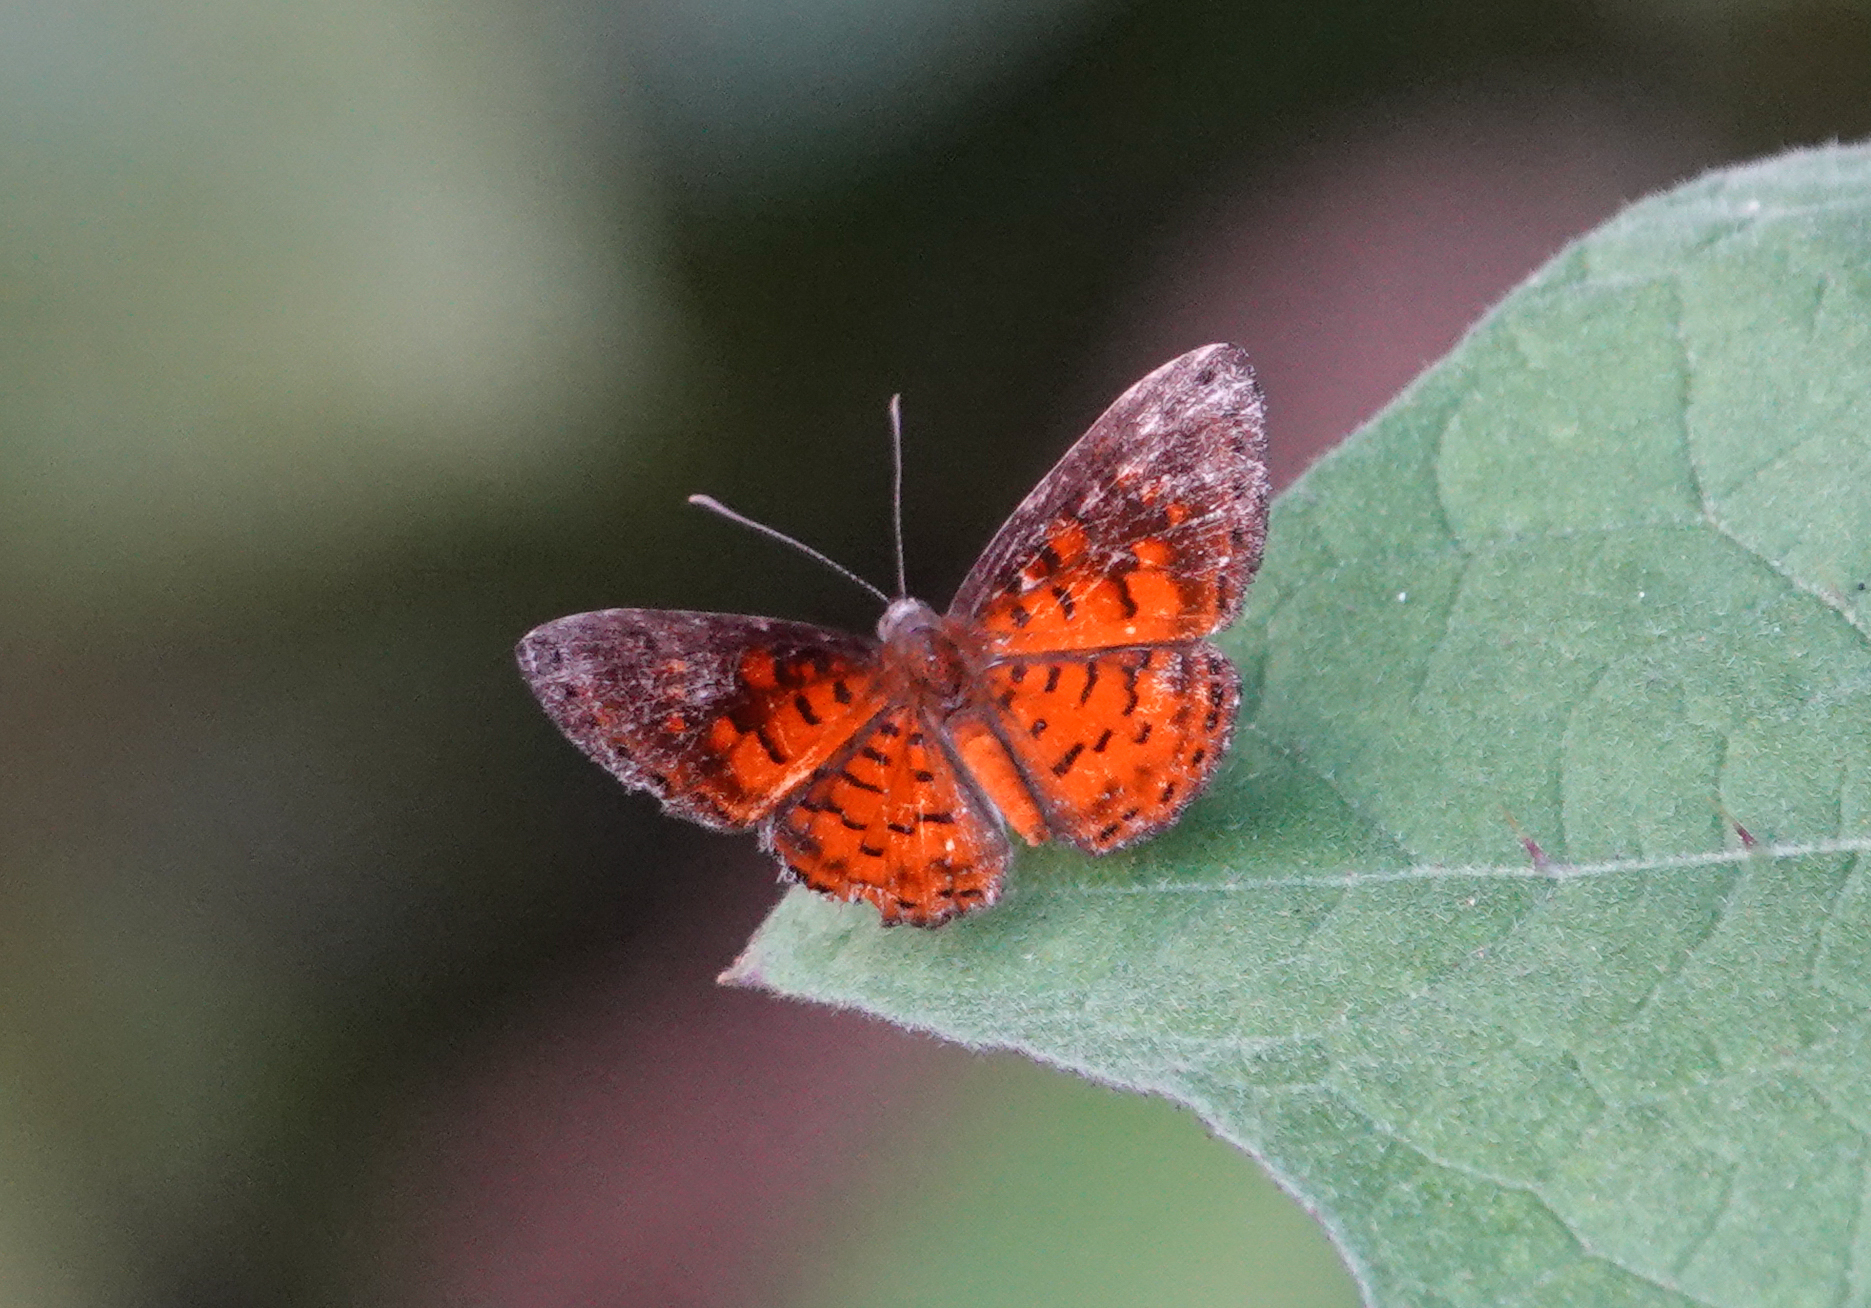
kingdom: Animalia
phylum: Arthropoda
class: Insecta
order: Lepidoptera
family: Riodinidae
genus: Polystichtis
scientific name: Polystichtis lucianus
